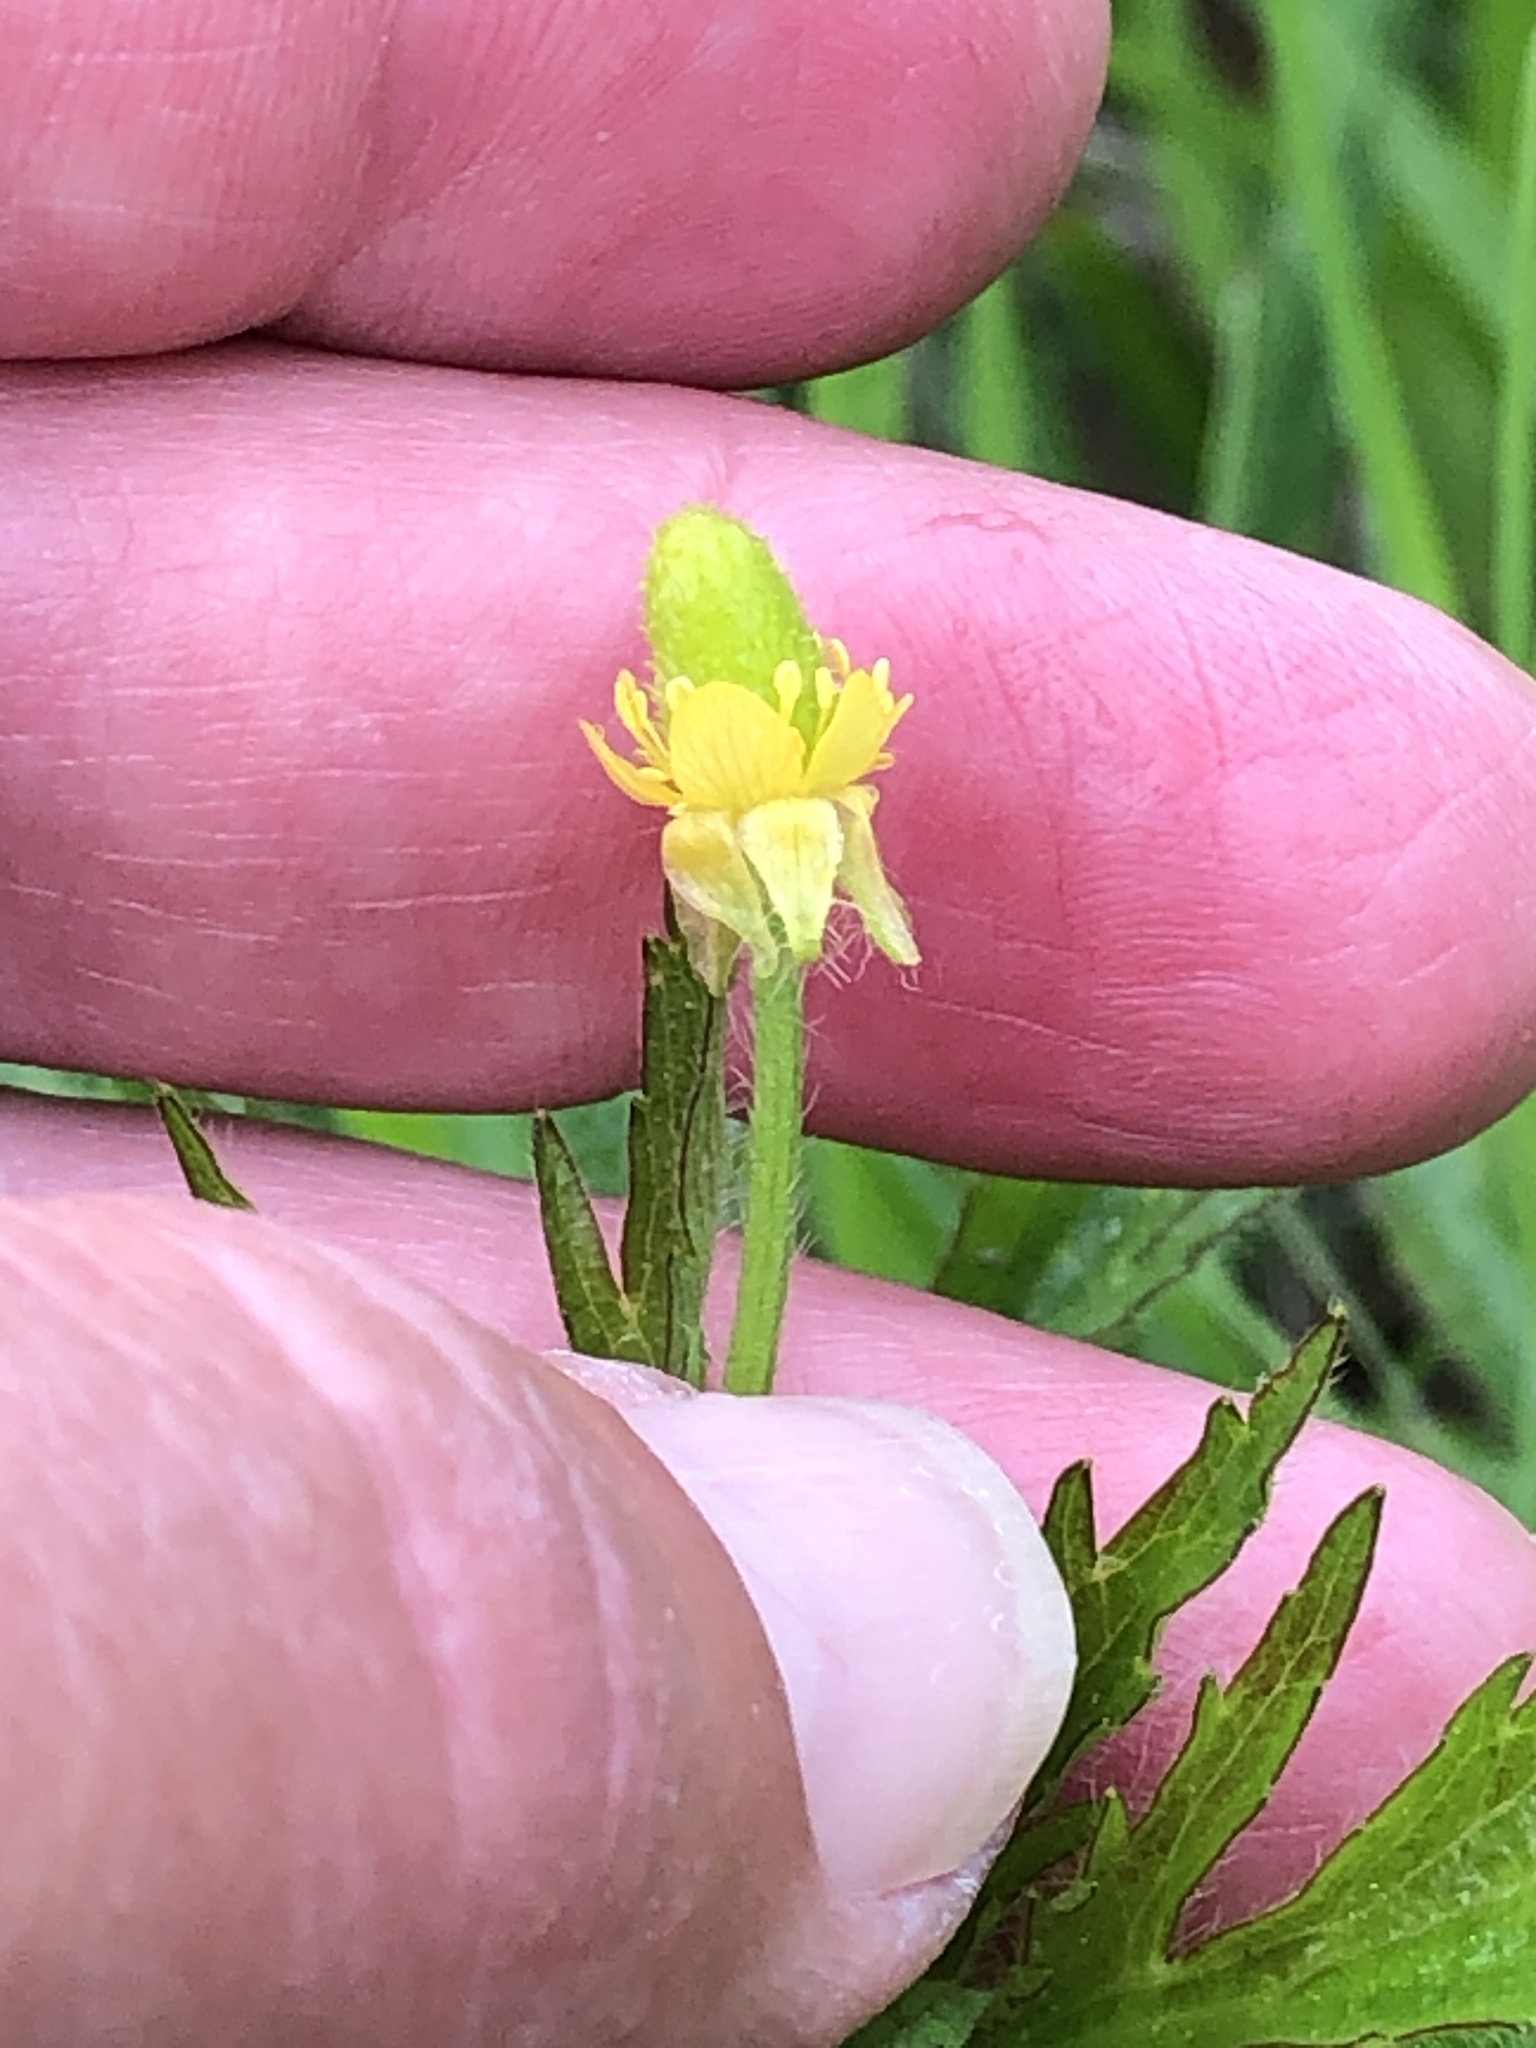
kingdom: Plantae
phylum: Tracheophyta
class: Magnoliopsida
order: Ranunculales
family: Ranunculaceae
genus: Ranunculus
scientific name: Ranunculus pensylvanicus
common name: Bristly buttercup
